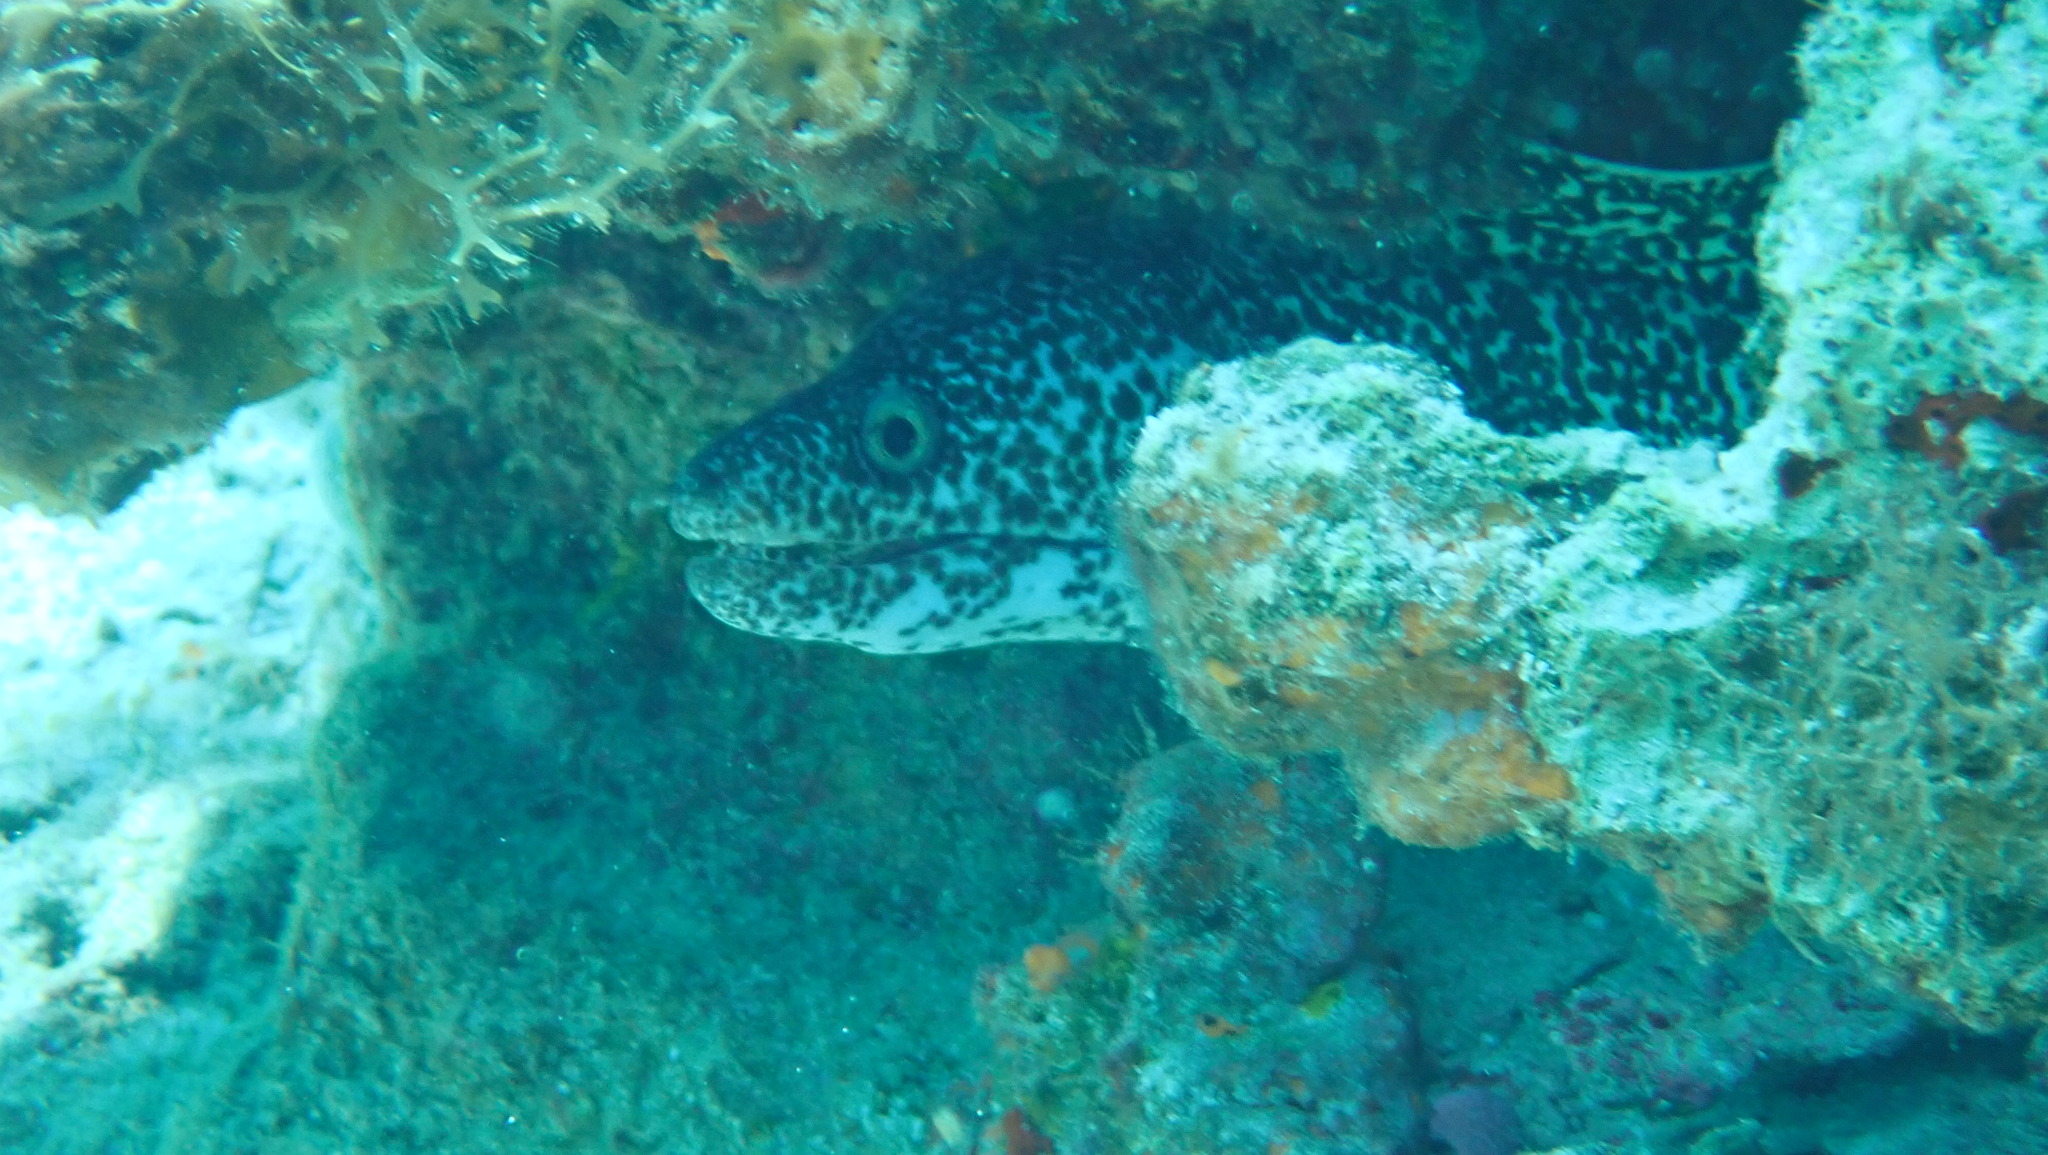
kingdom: Animalia
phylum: Chordata
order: Anguilliformes
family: Muraenidae
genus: Gymnothorax
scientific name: Gymnothorax moringa
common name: Spotted moray
